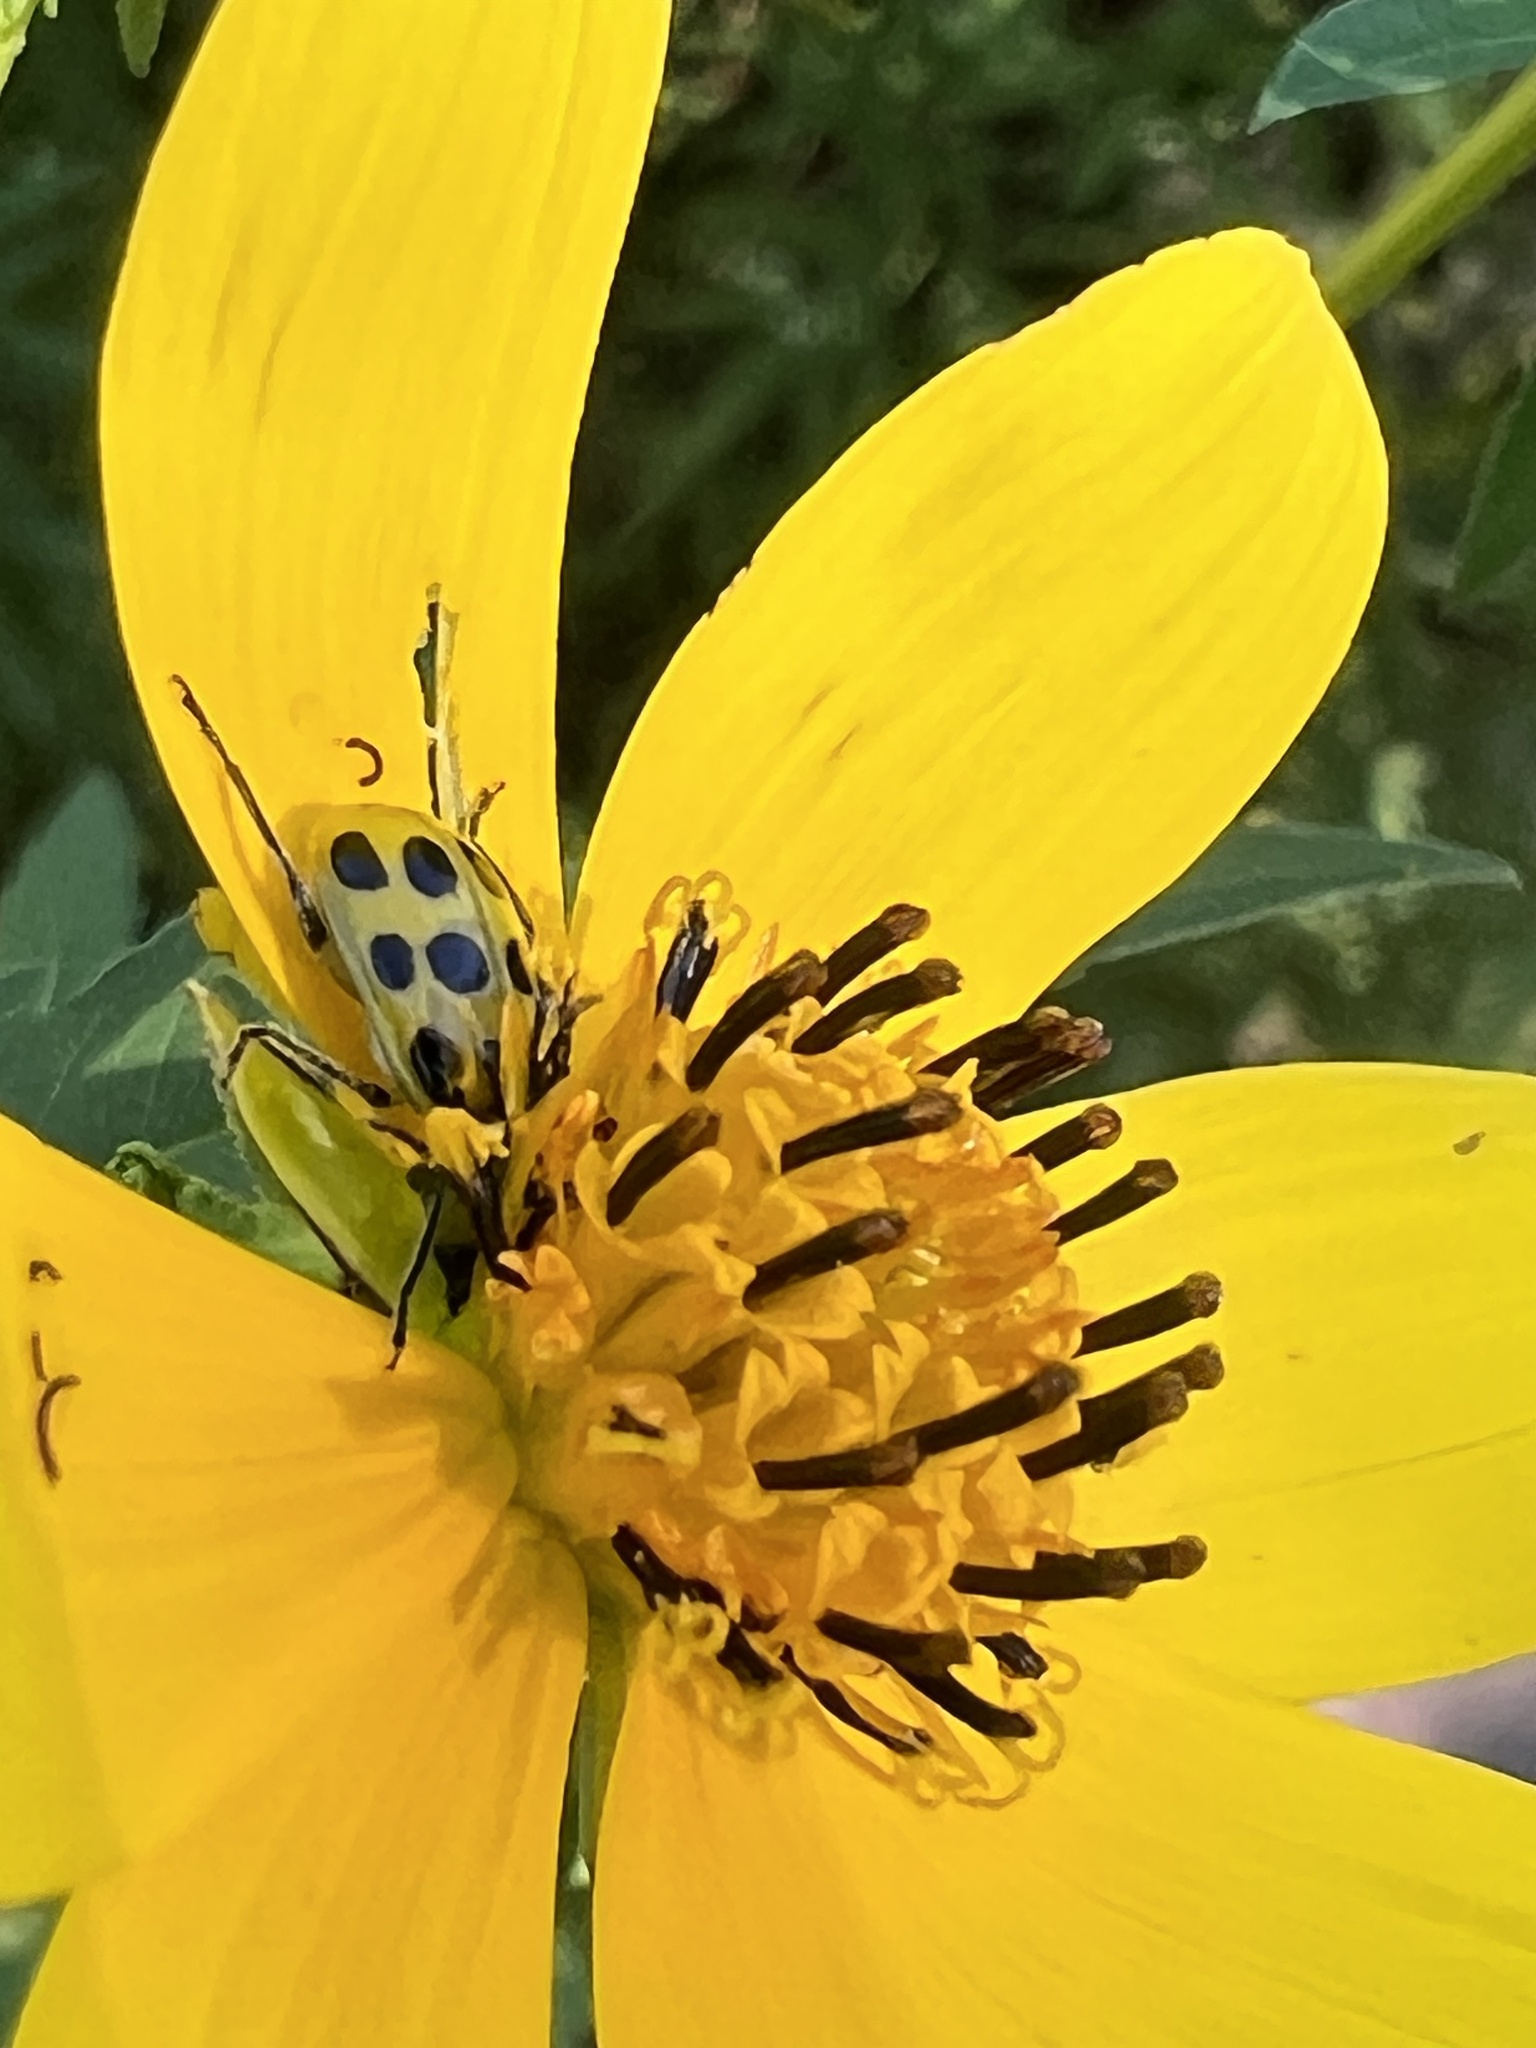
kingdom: Animalia
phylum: Arthropoda
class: Insecta
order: Coleoptera
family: Chrysomelidae
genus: Diabrotica
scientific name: Diabrotica undecimpunctata
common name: Spotted cucumber beetle
